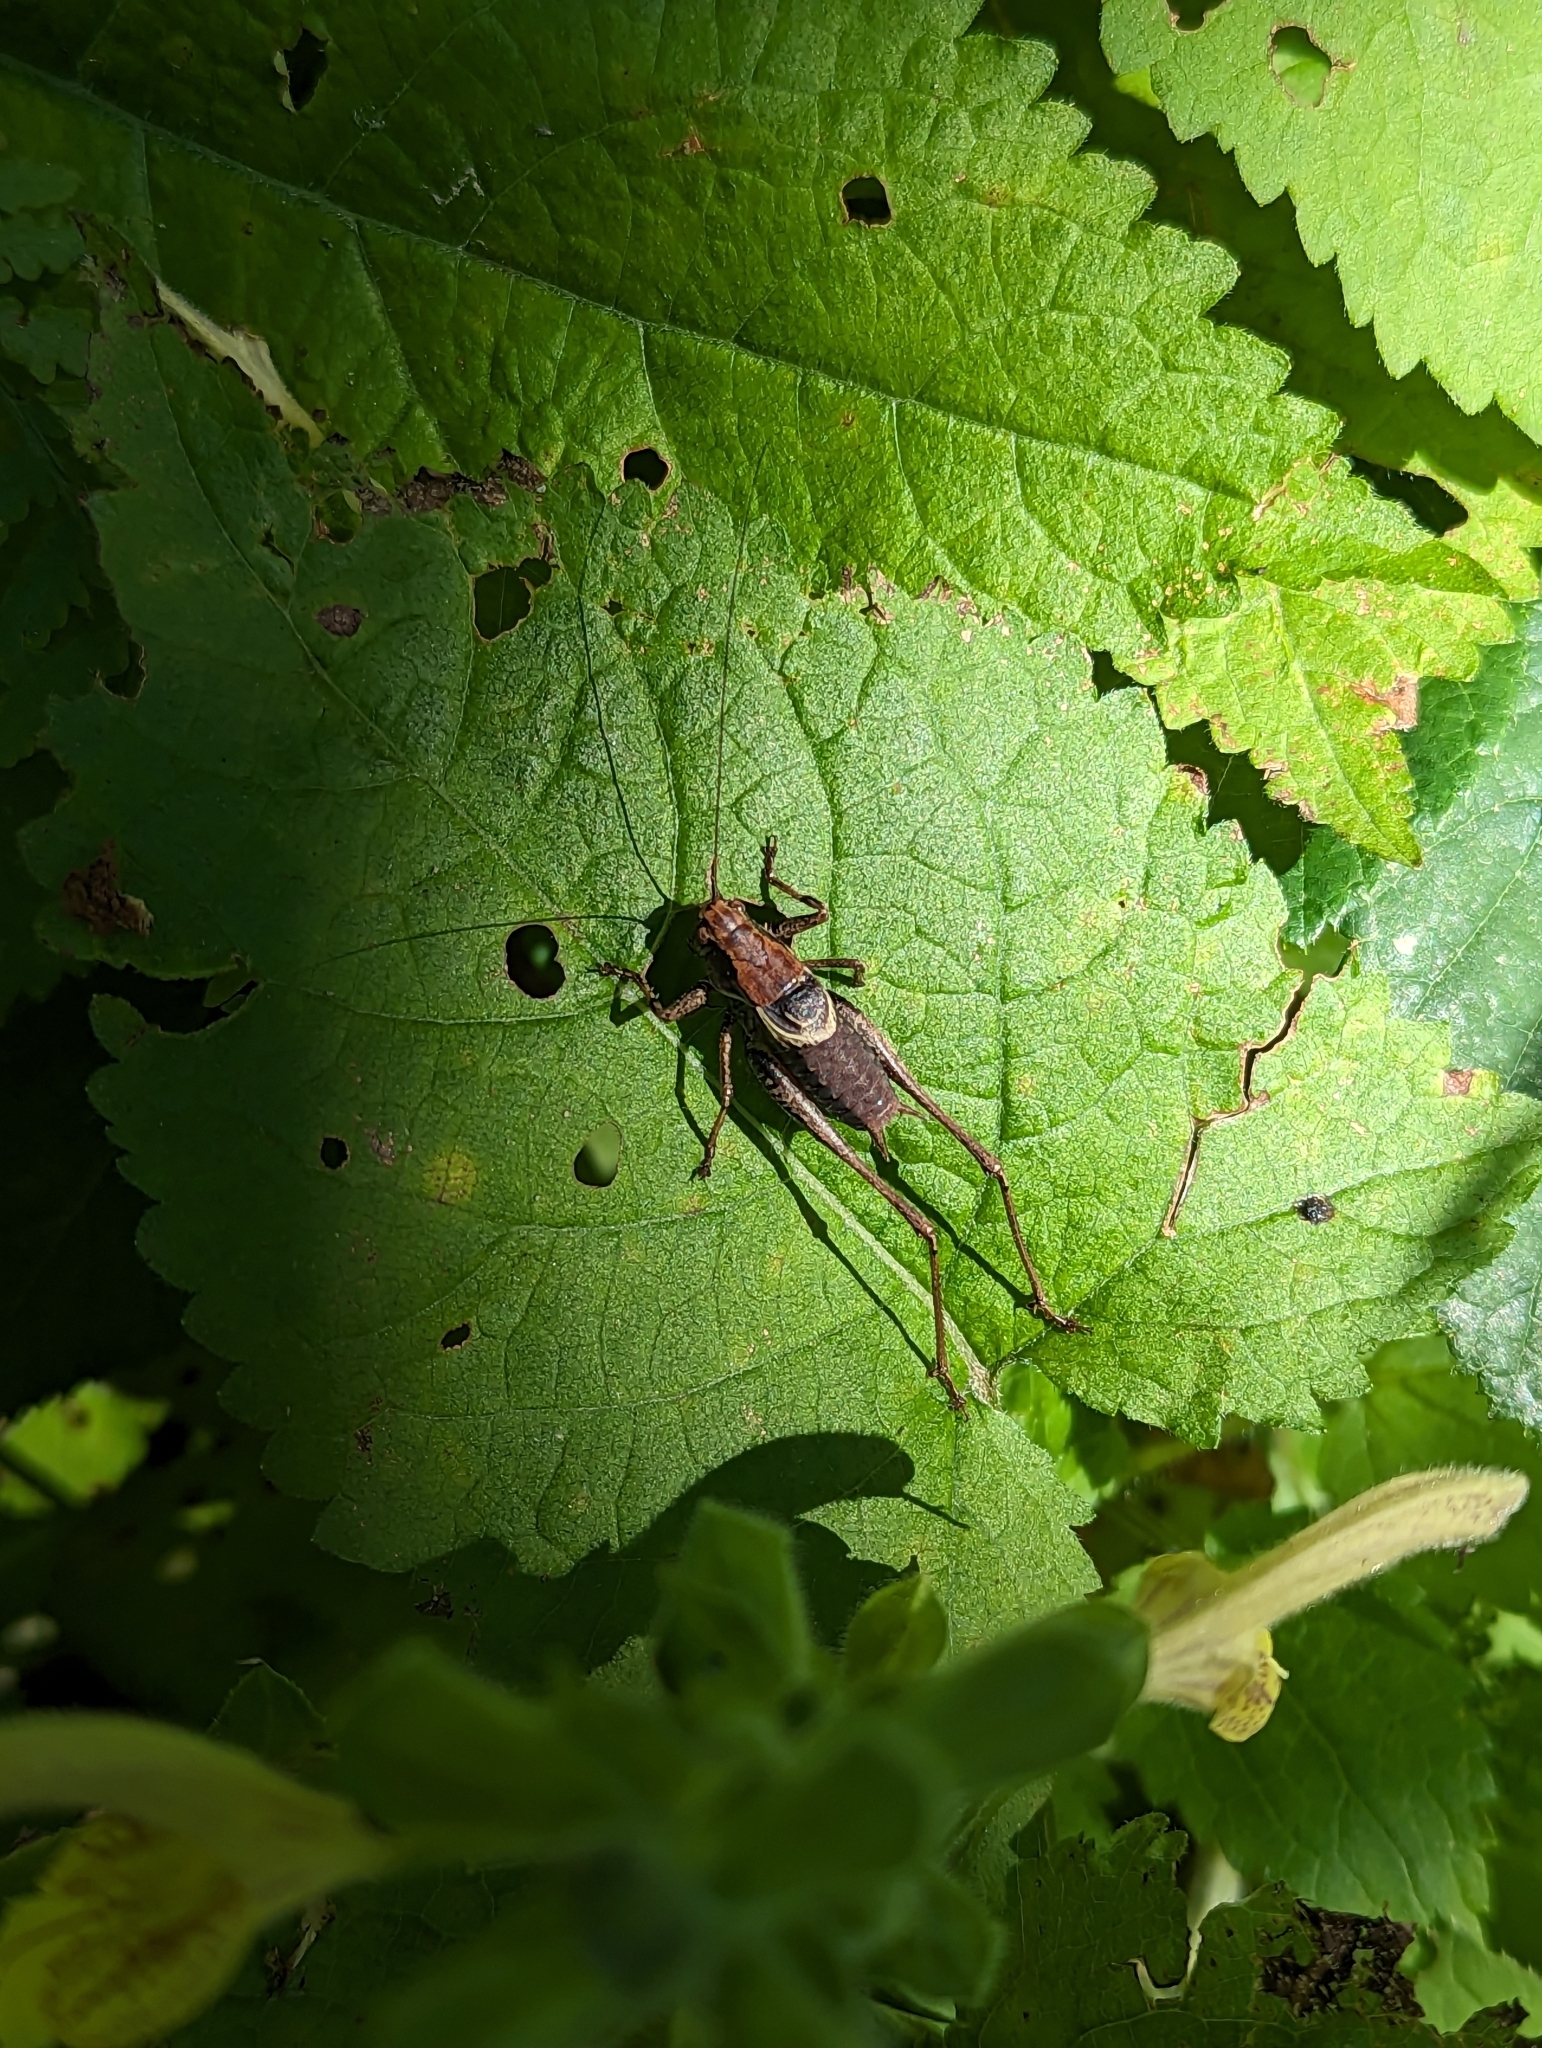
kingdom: Animalia
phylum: Arthropoda
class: Insecta
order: Orthoptera
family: Tettigoniidae
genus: Pholidoptera
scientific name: Pholidoptera griseoaptera
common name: Dark bush-cricket
